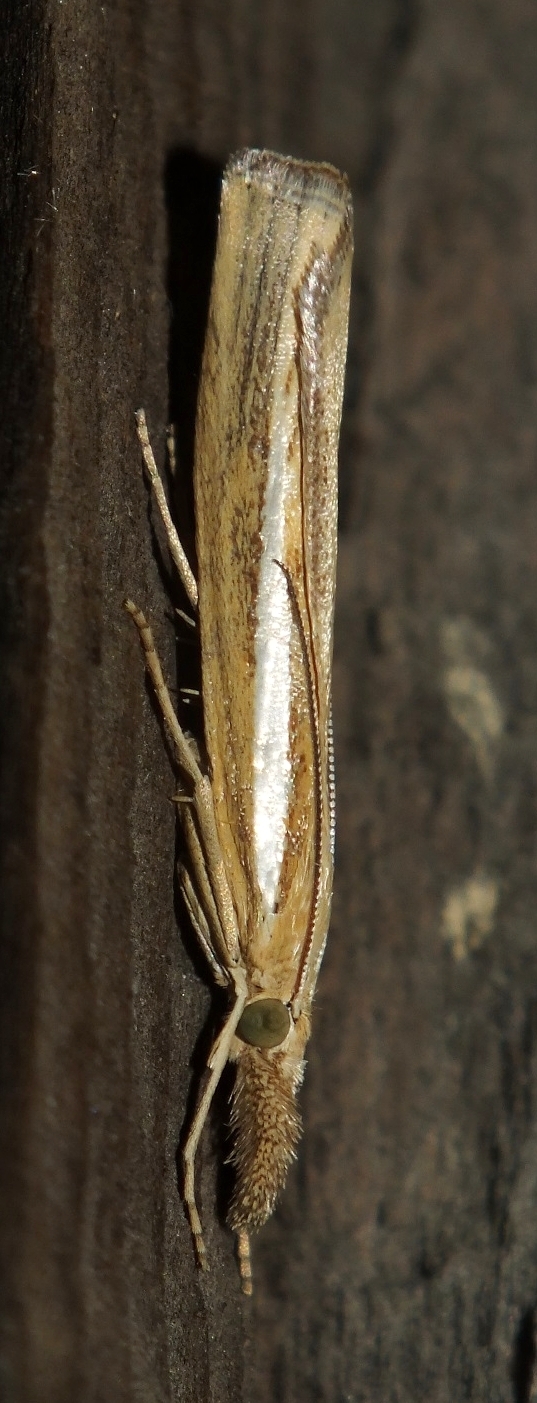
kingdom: Animalia
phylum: Arthropoda
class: Insecta
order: Lepidoptera
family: Crambidae
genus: Agriphila
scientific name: Agriphila tristellus
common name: Common grass-veneer
